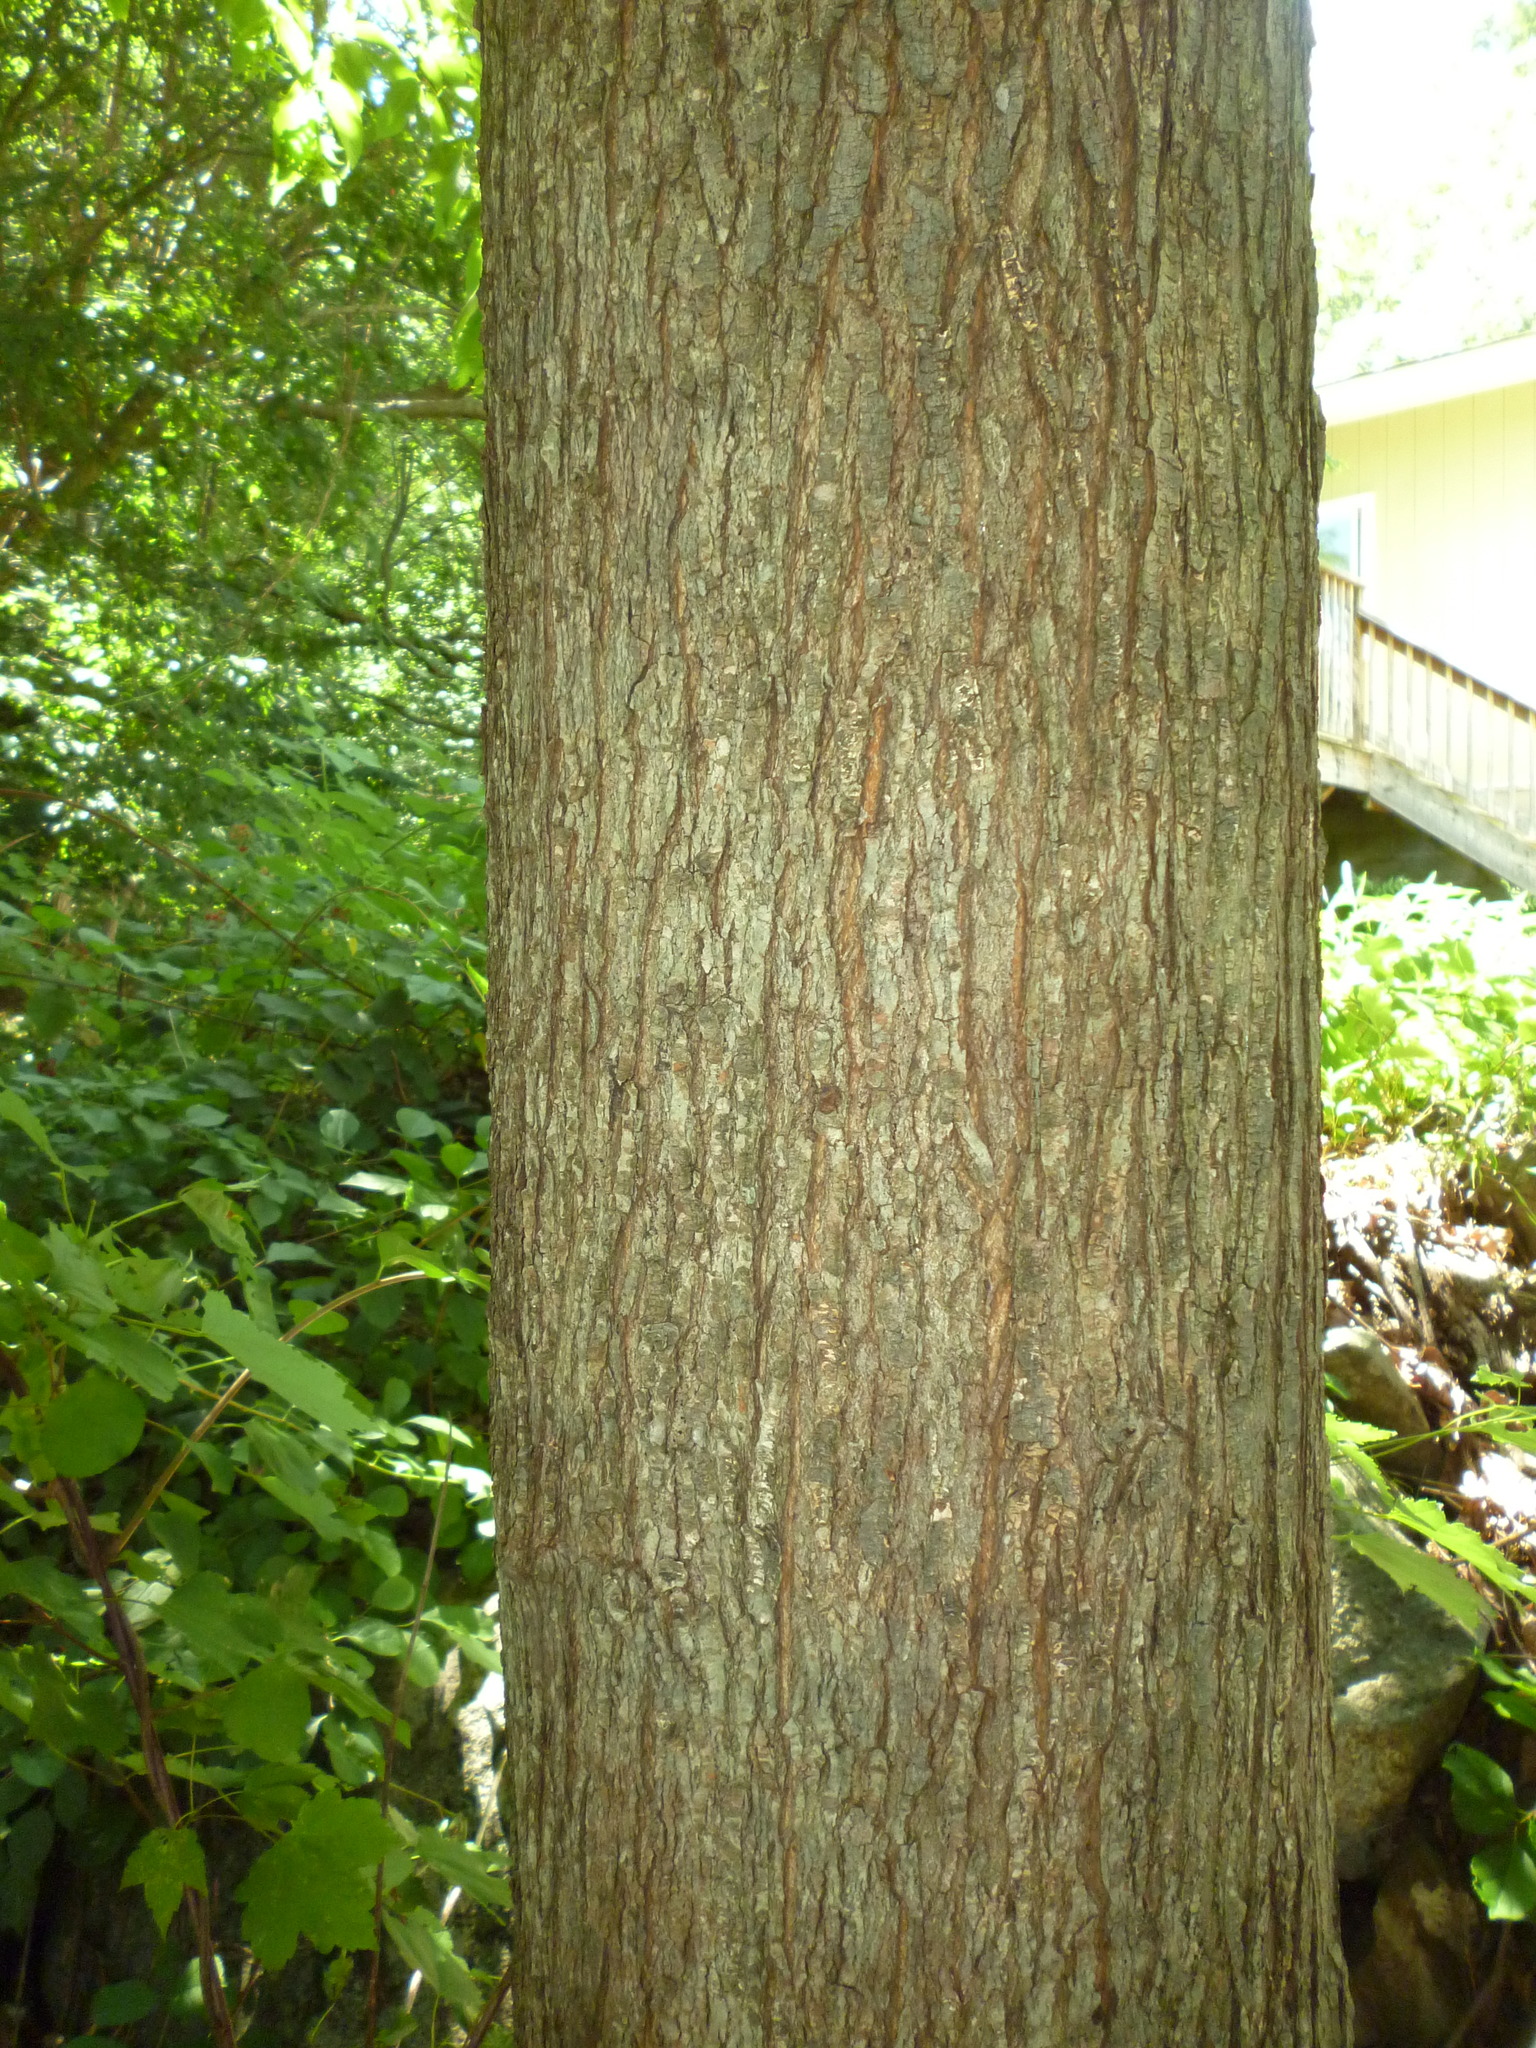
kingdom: Plantae
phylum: Tracheophyta
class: Magnoliopsida
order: Sapindales
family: Sapindaceae
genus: Acer
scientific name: Acer rubrum
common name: Red maple
